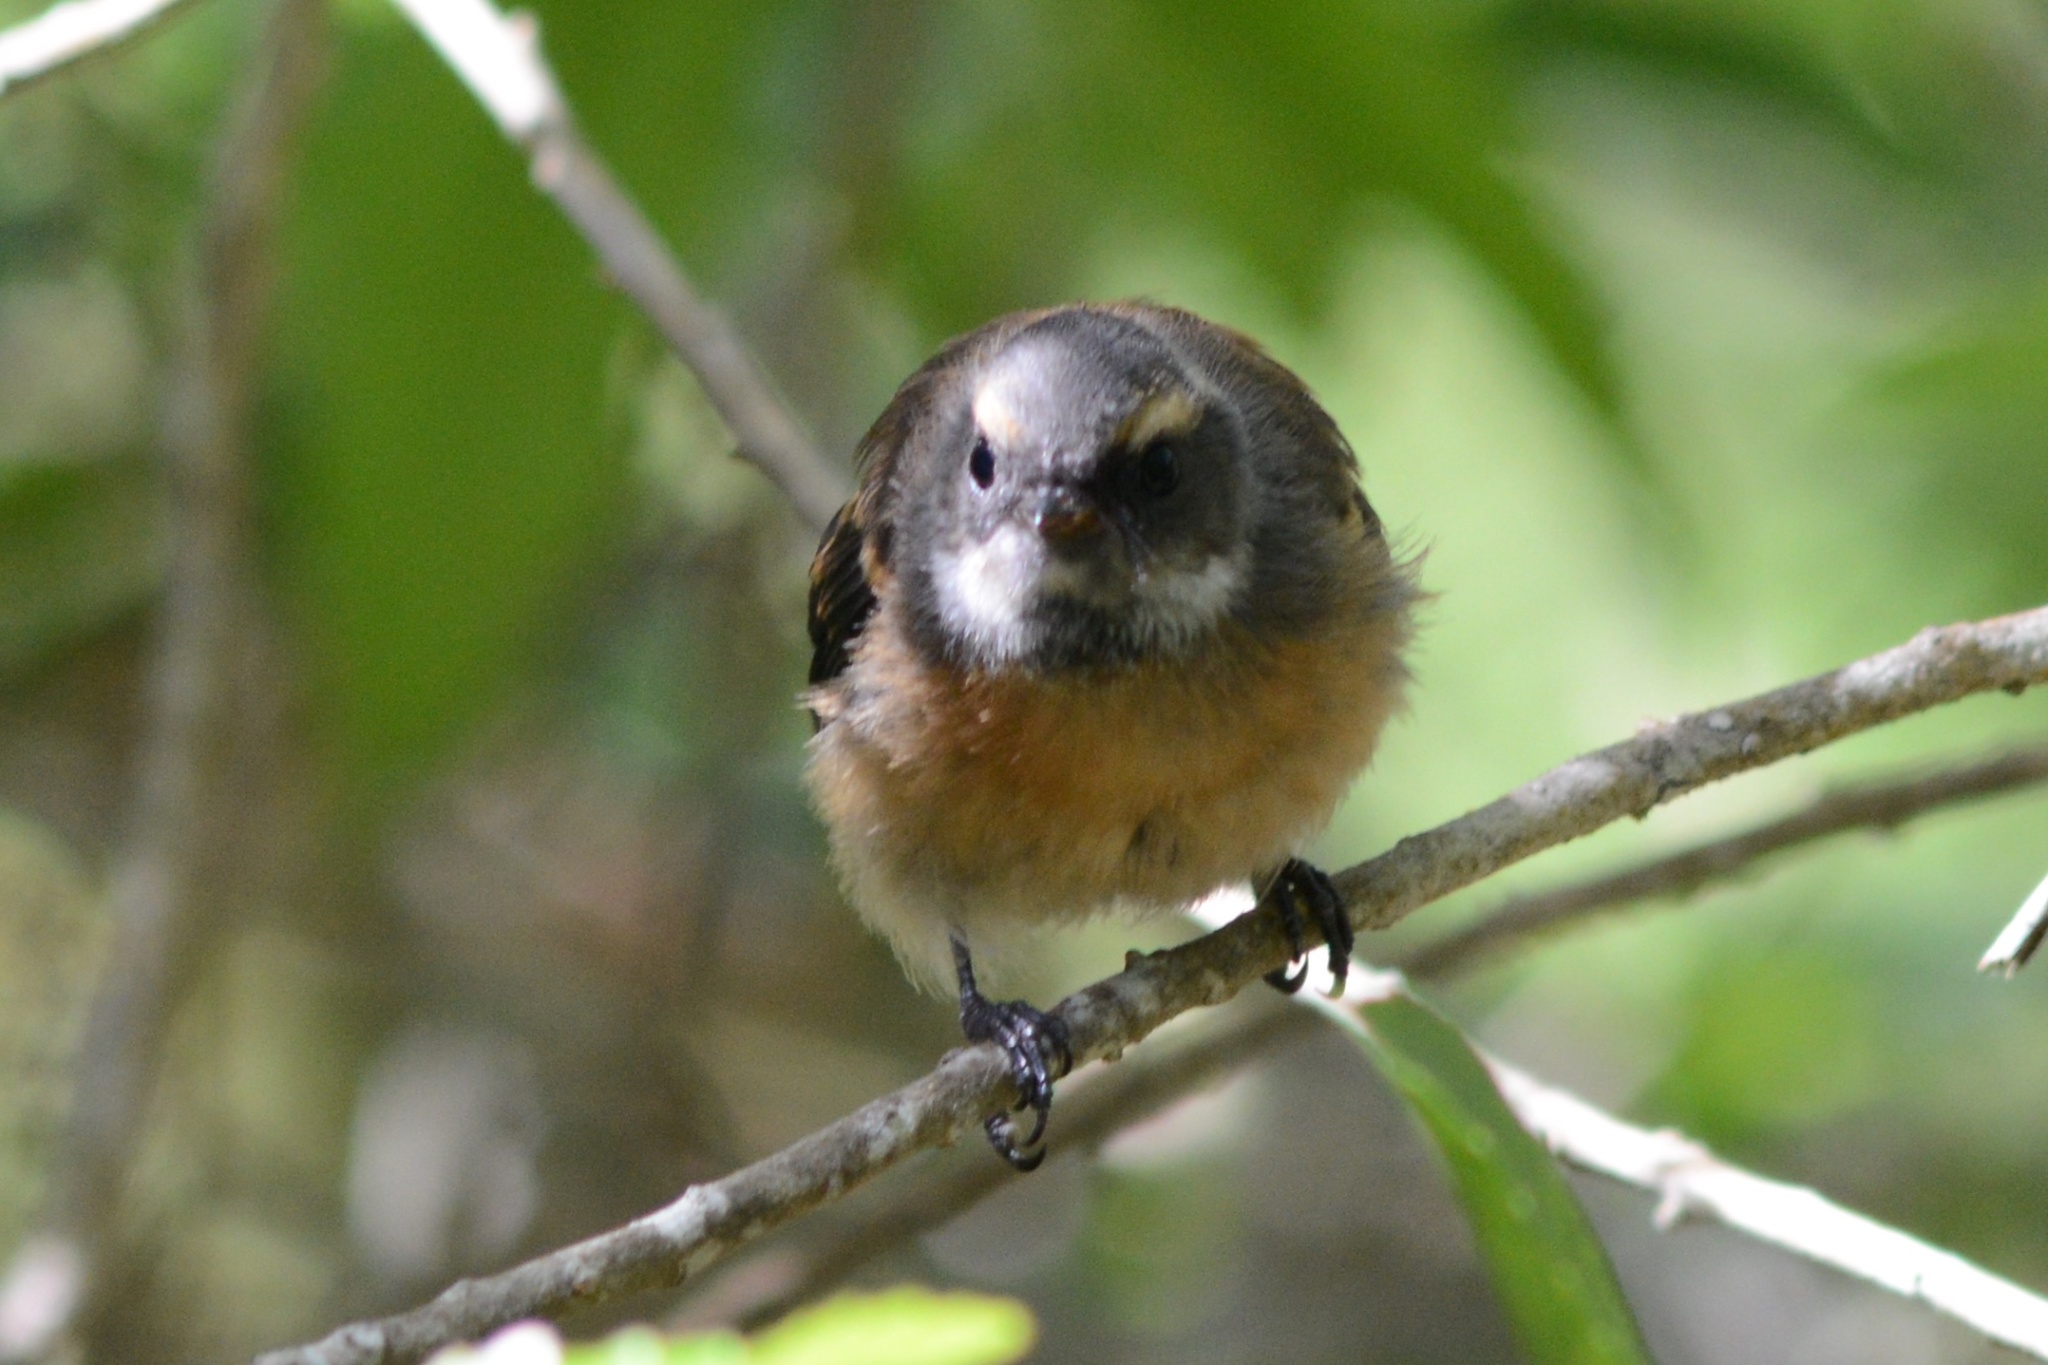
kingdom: Animalia
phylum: Chordata
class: Aves
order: Passeriformes
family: Rhipiduridae
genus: Rhipidura
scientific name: Rhipidura fuliginosa
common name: New zealand fantail
